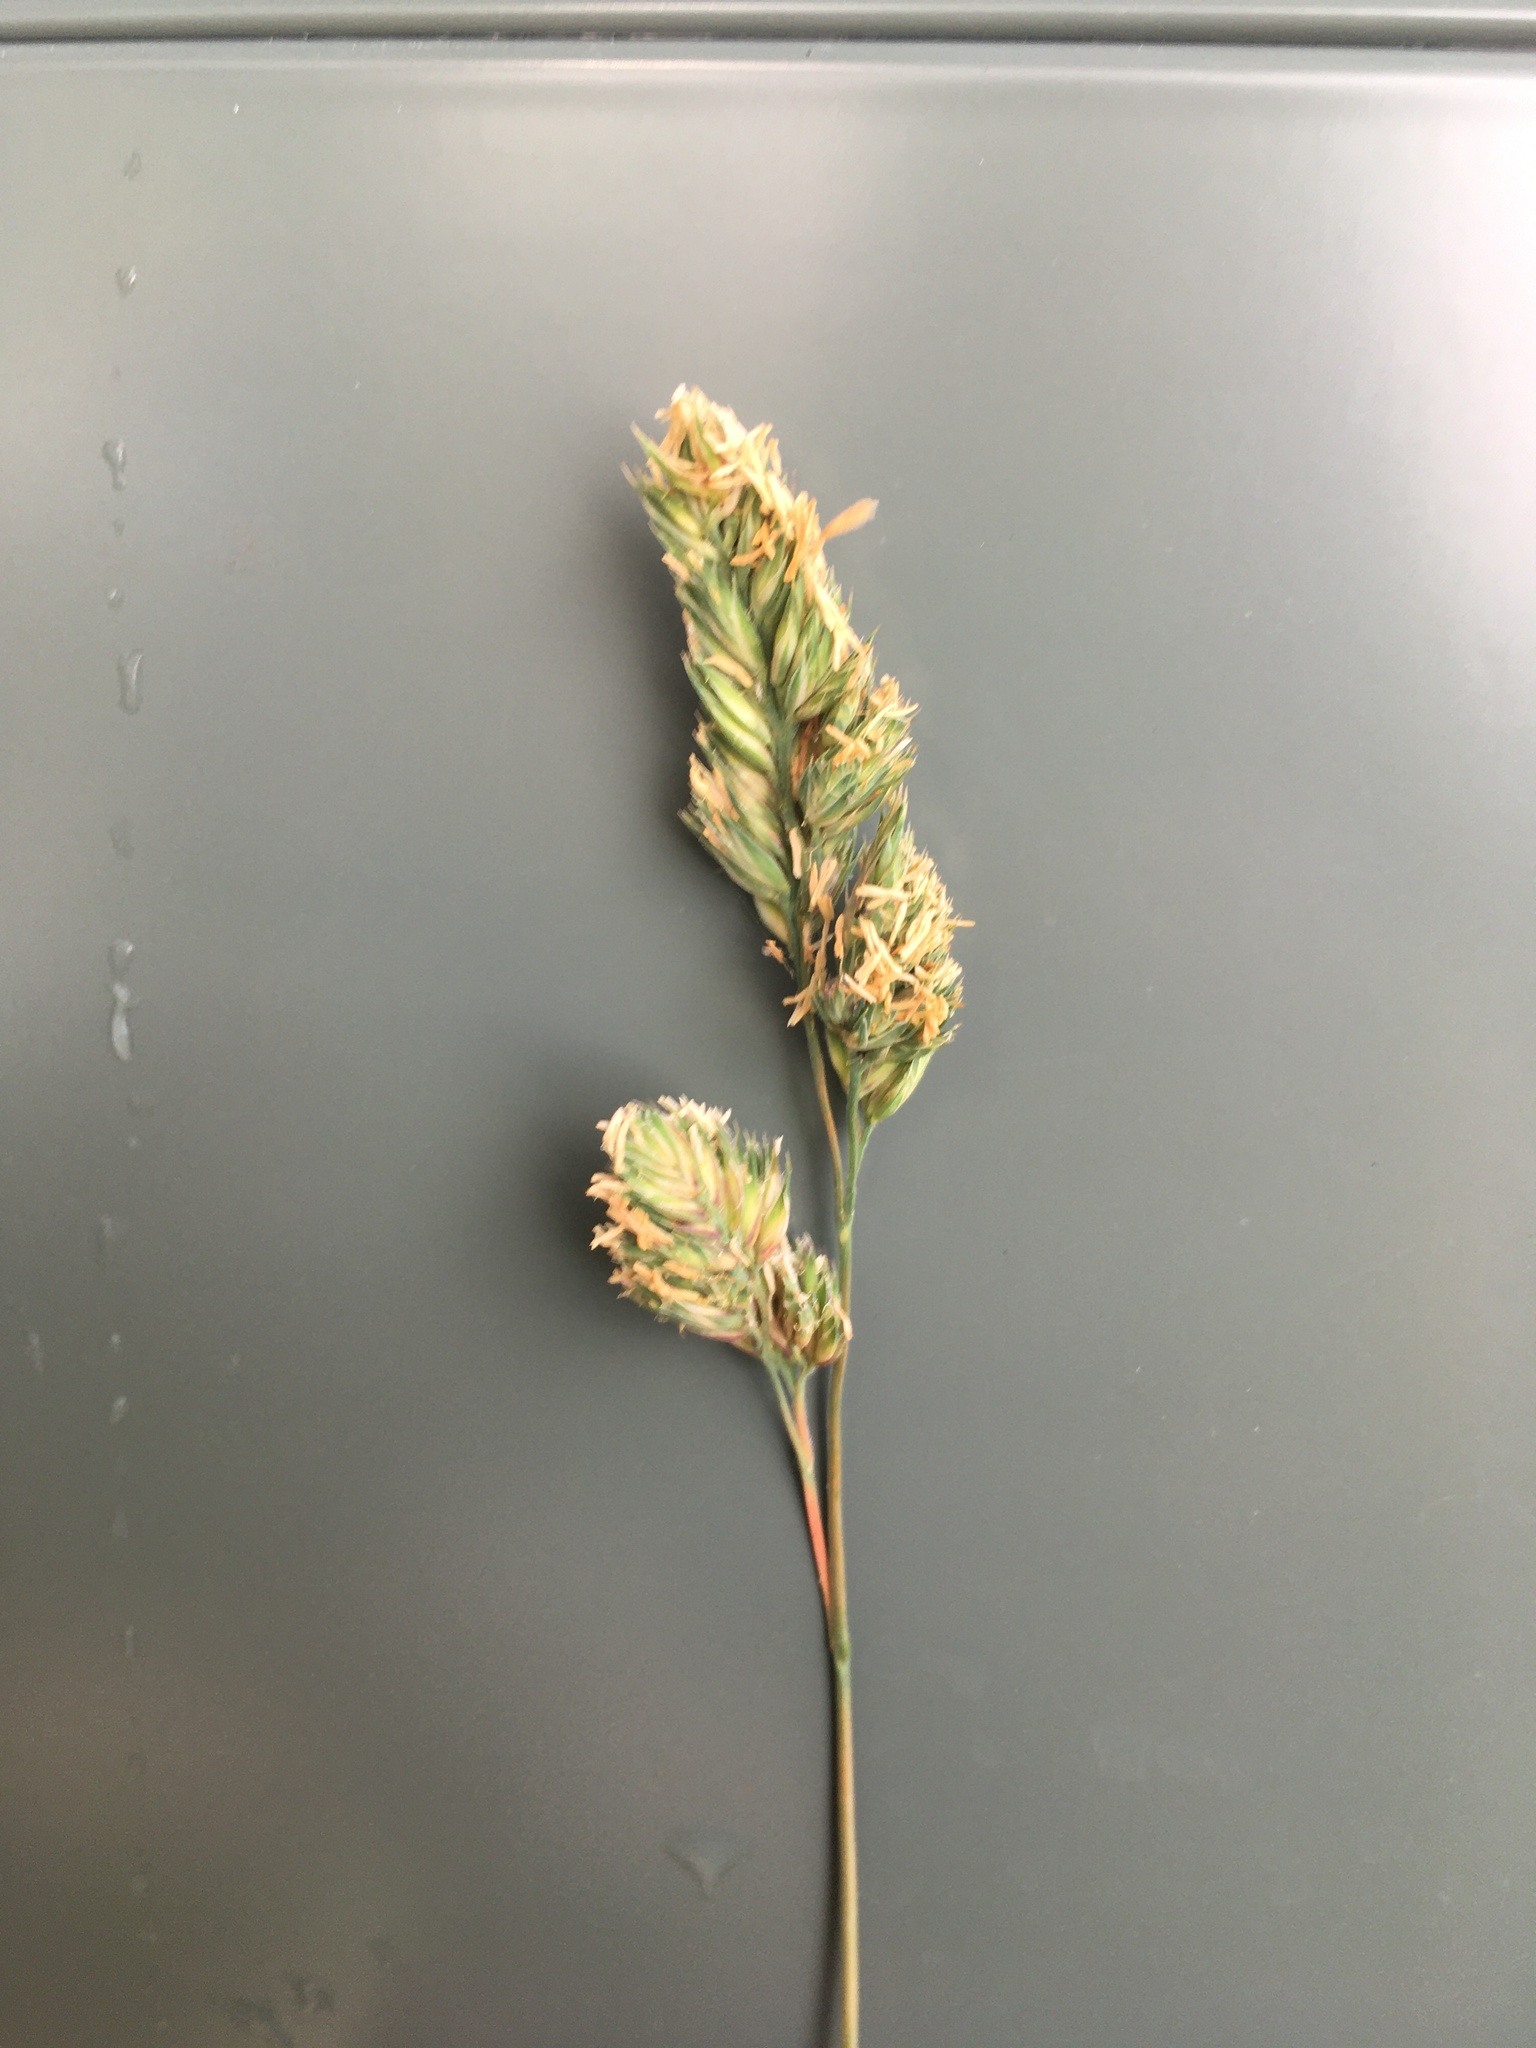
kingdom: Plantae
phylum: Tracheophyta
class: Liliopsida
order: Poales
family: Poaceae
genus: Dactylis
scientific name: Dactylis glomerata
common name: Orchardgrass
